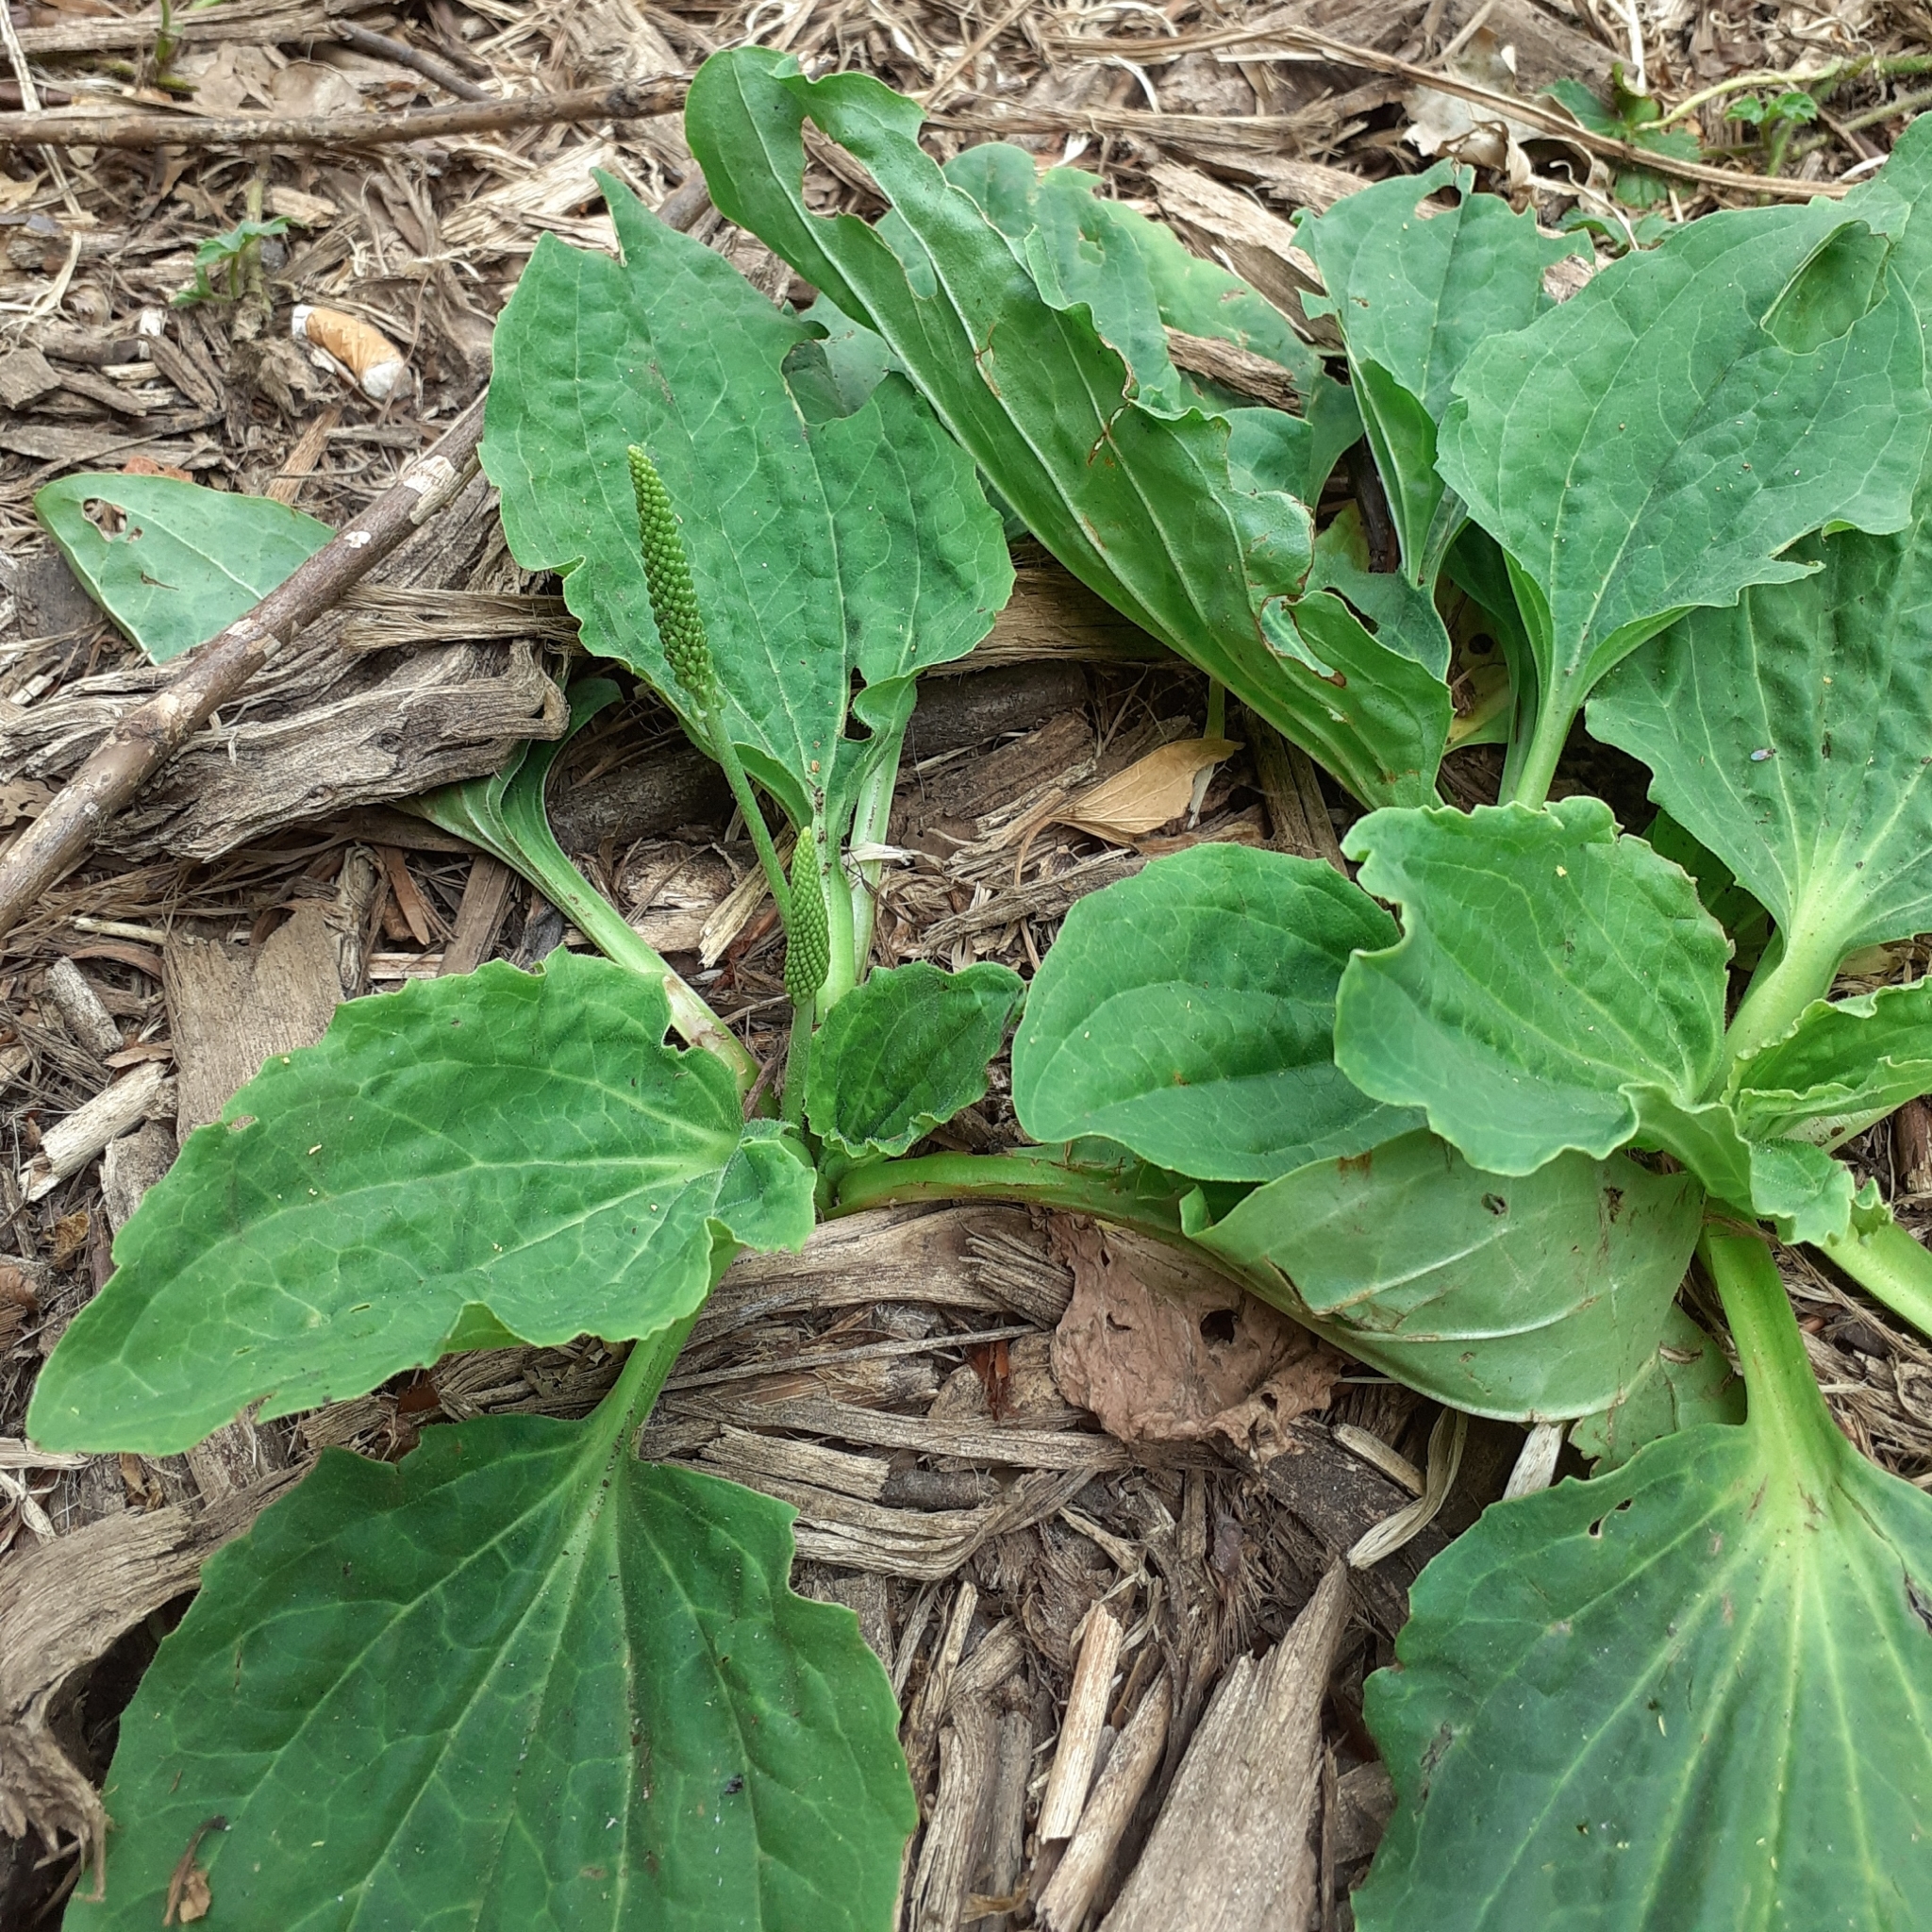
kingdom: Plantae
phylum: Tracheophyta
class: Magnoliopsida
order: Lamiales
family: Plantaginaceae
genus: Plantago
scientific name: Plantago major
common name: Common plantain
